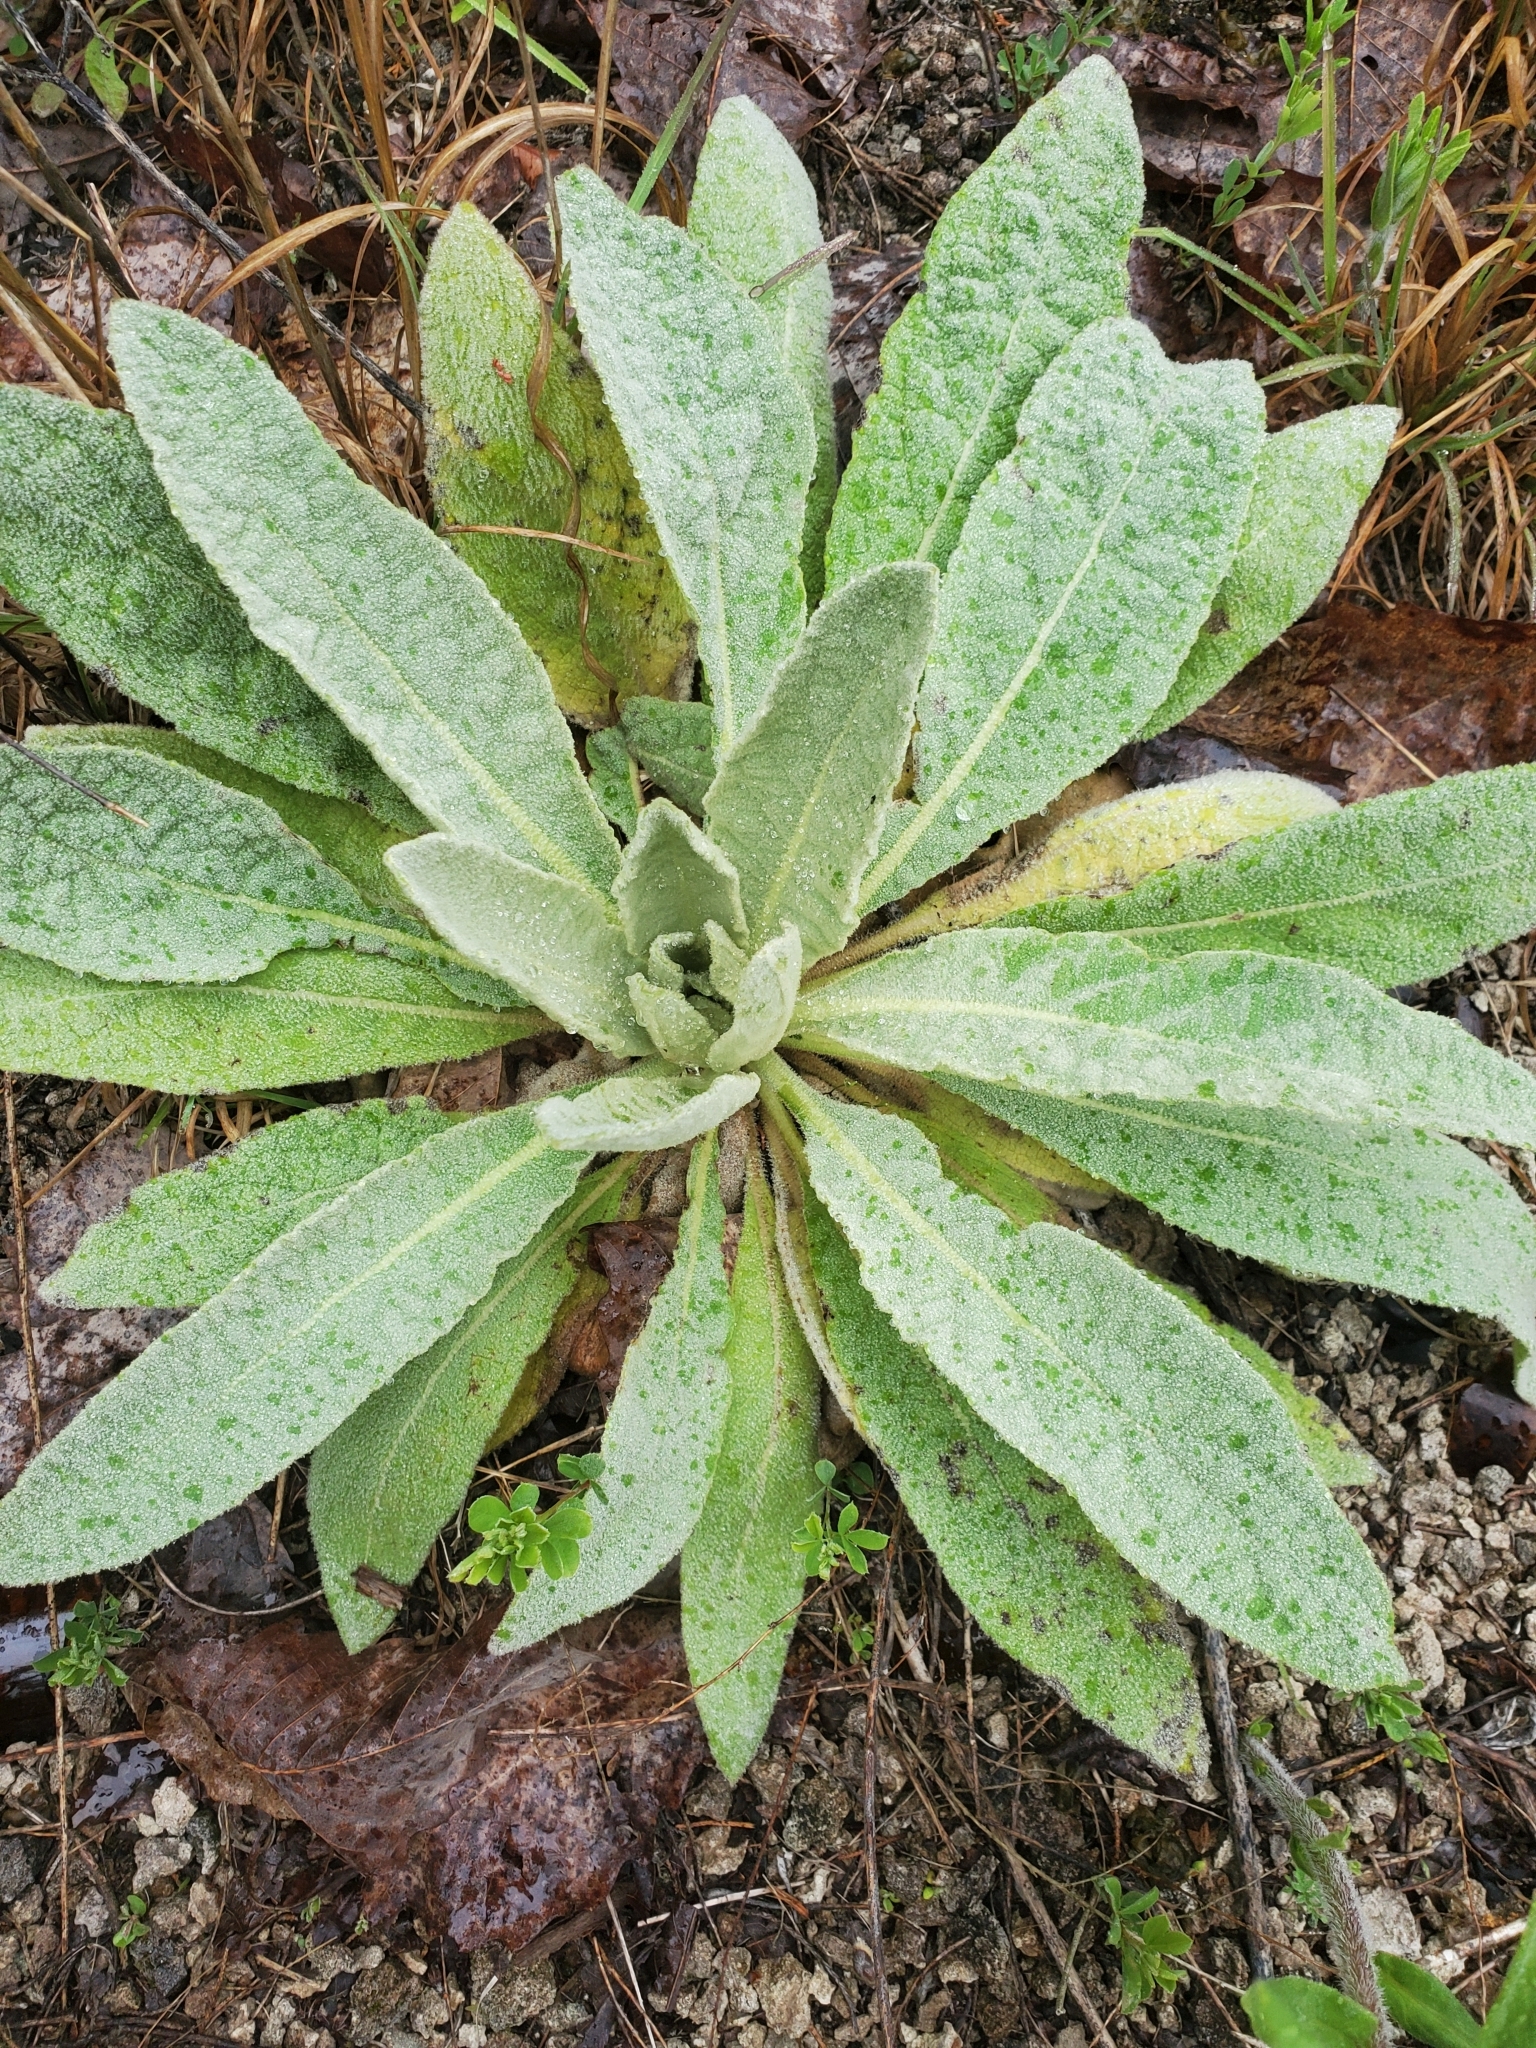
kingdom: Plantae
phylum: Tracheophyta
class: Magnoliopsida
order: Lamiales
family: Scrophulariaceae
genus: Verbascum
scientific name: Verbascum thapsus
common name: Common mullein
